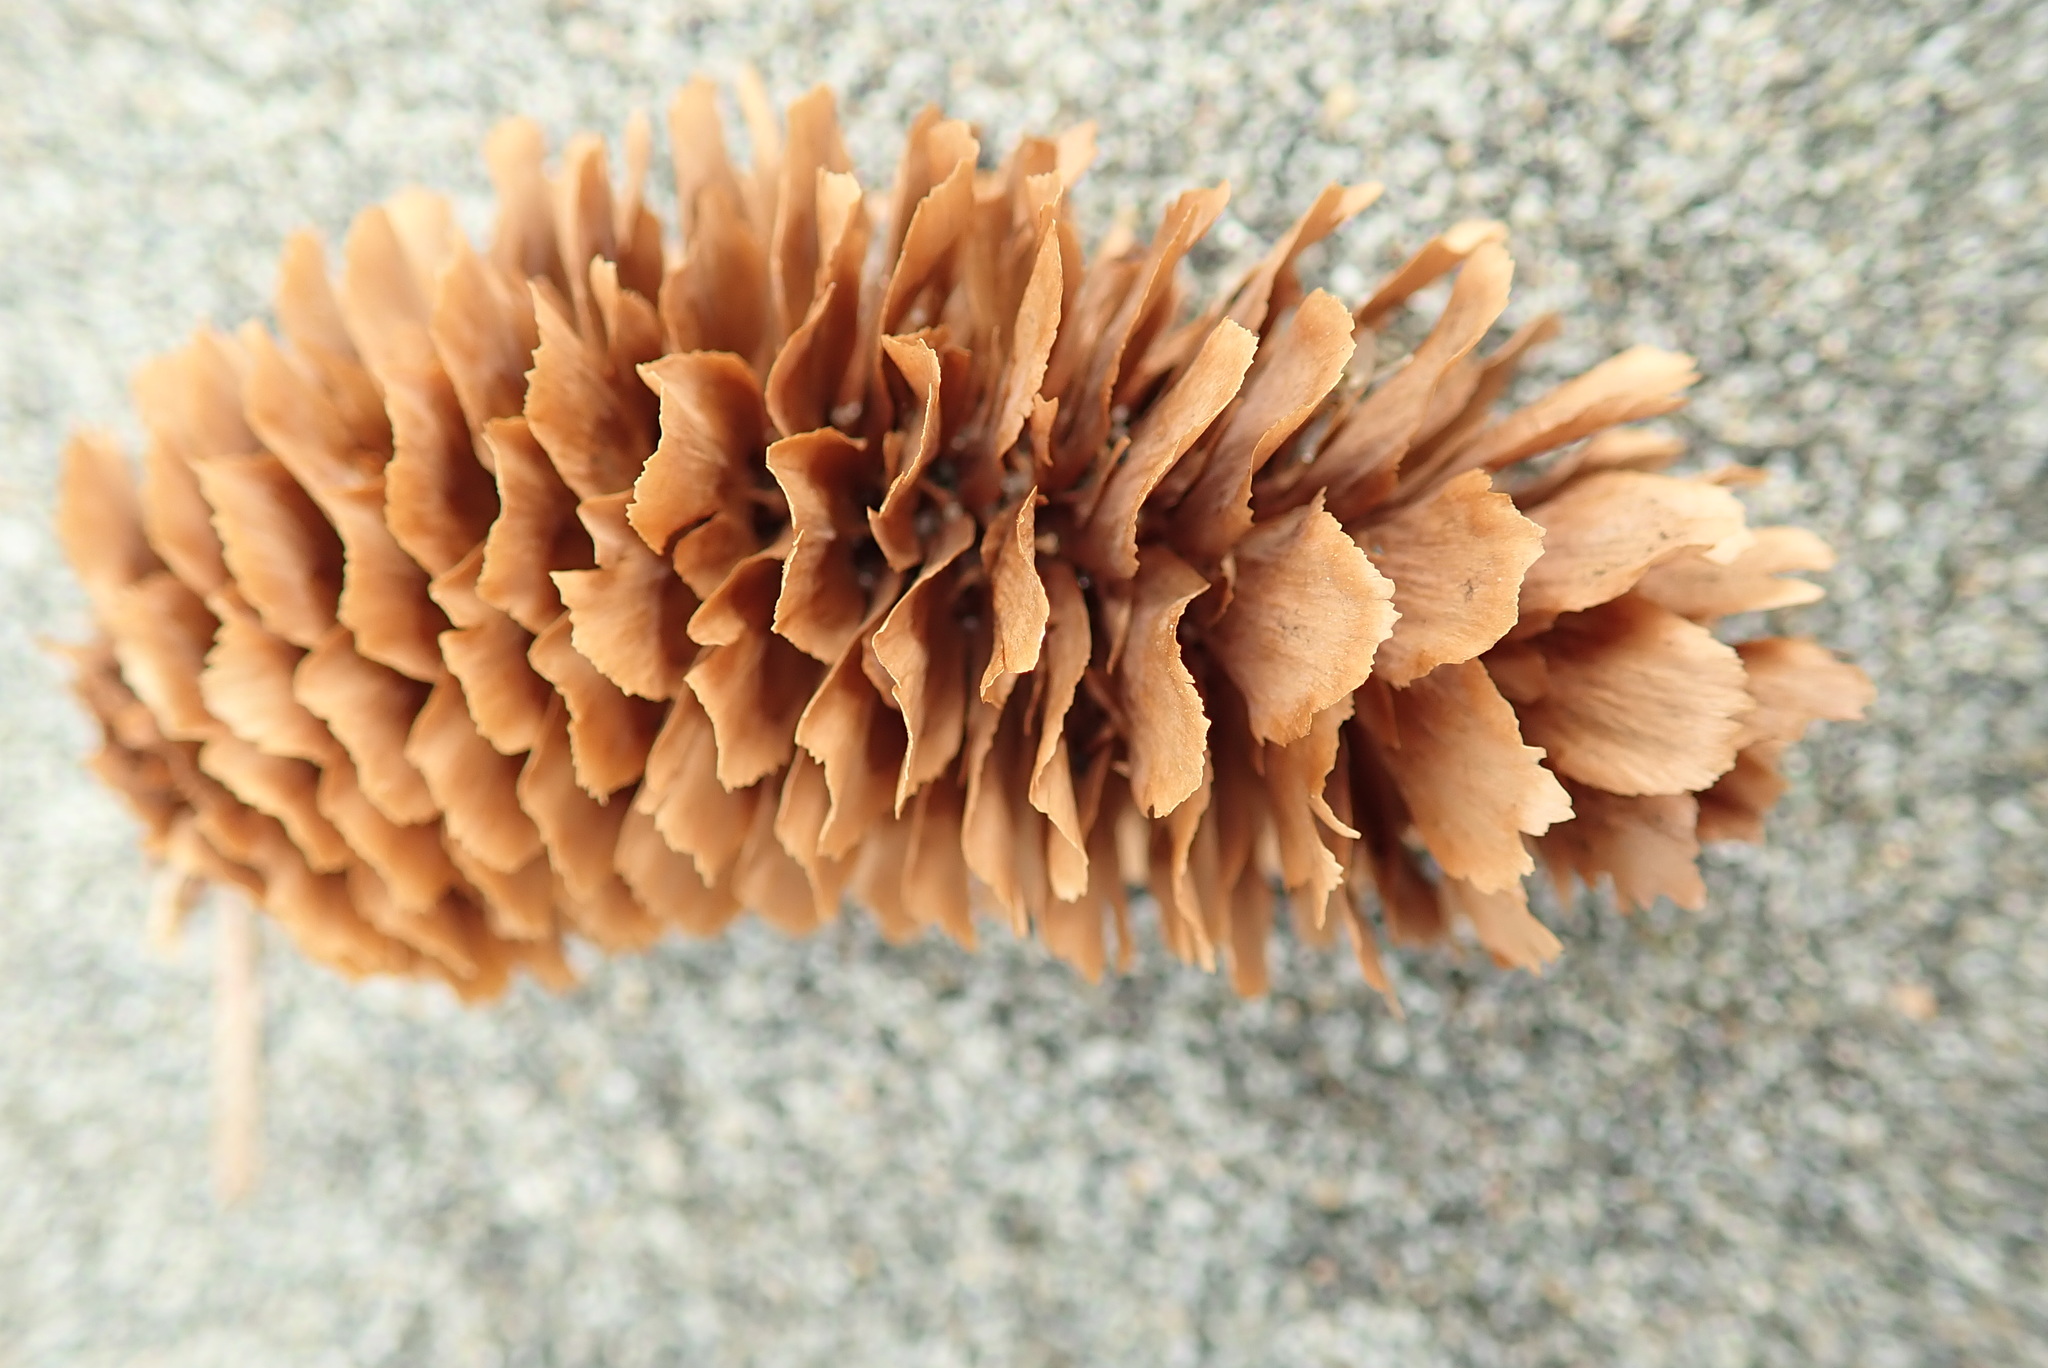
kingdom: Plantae
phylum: Tracheophyta
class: Pinopsida
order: Pinales
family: Pinaceae
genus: Picea
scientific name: Picea sitchensis
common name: Sitka spruce
